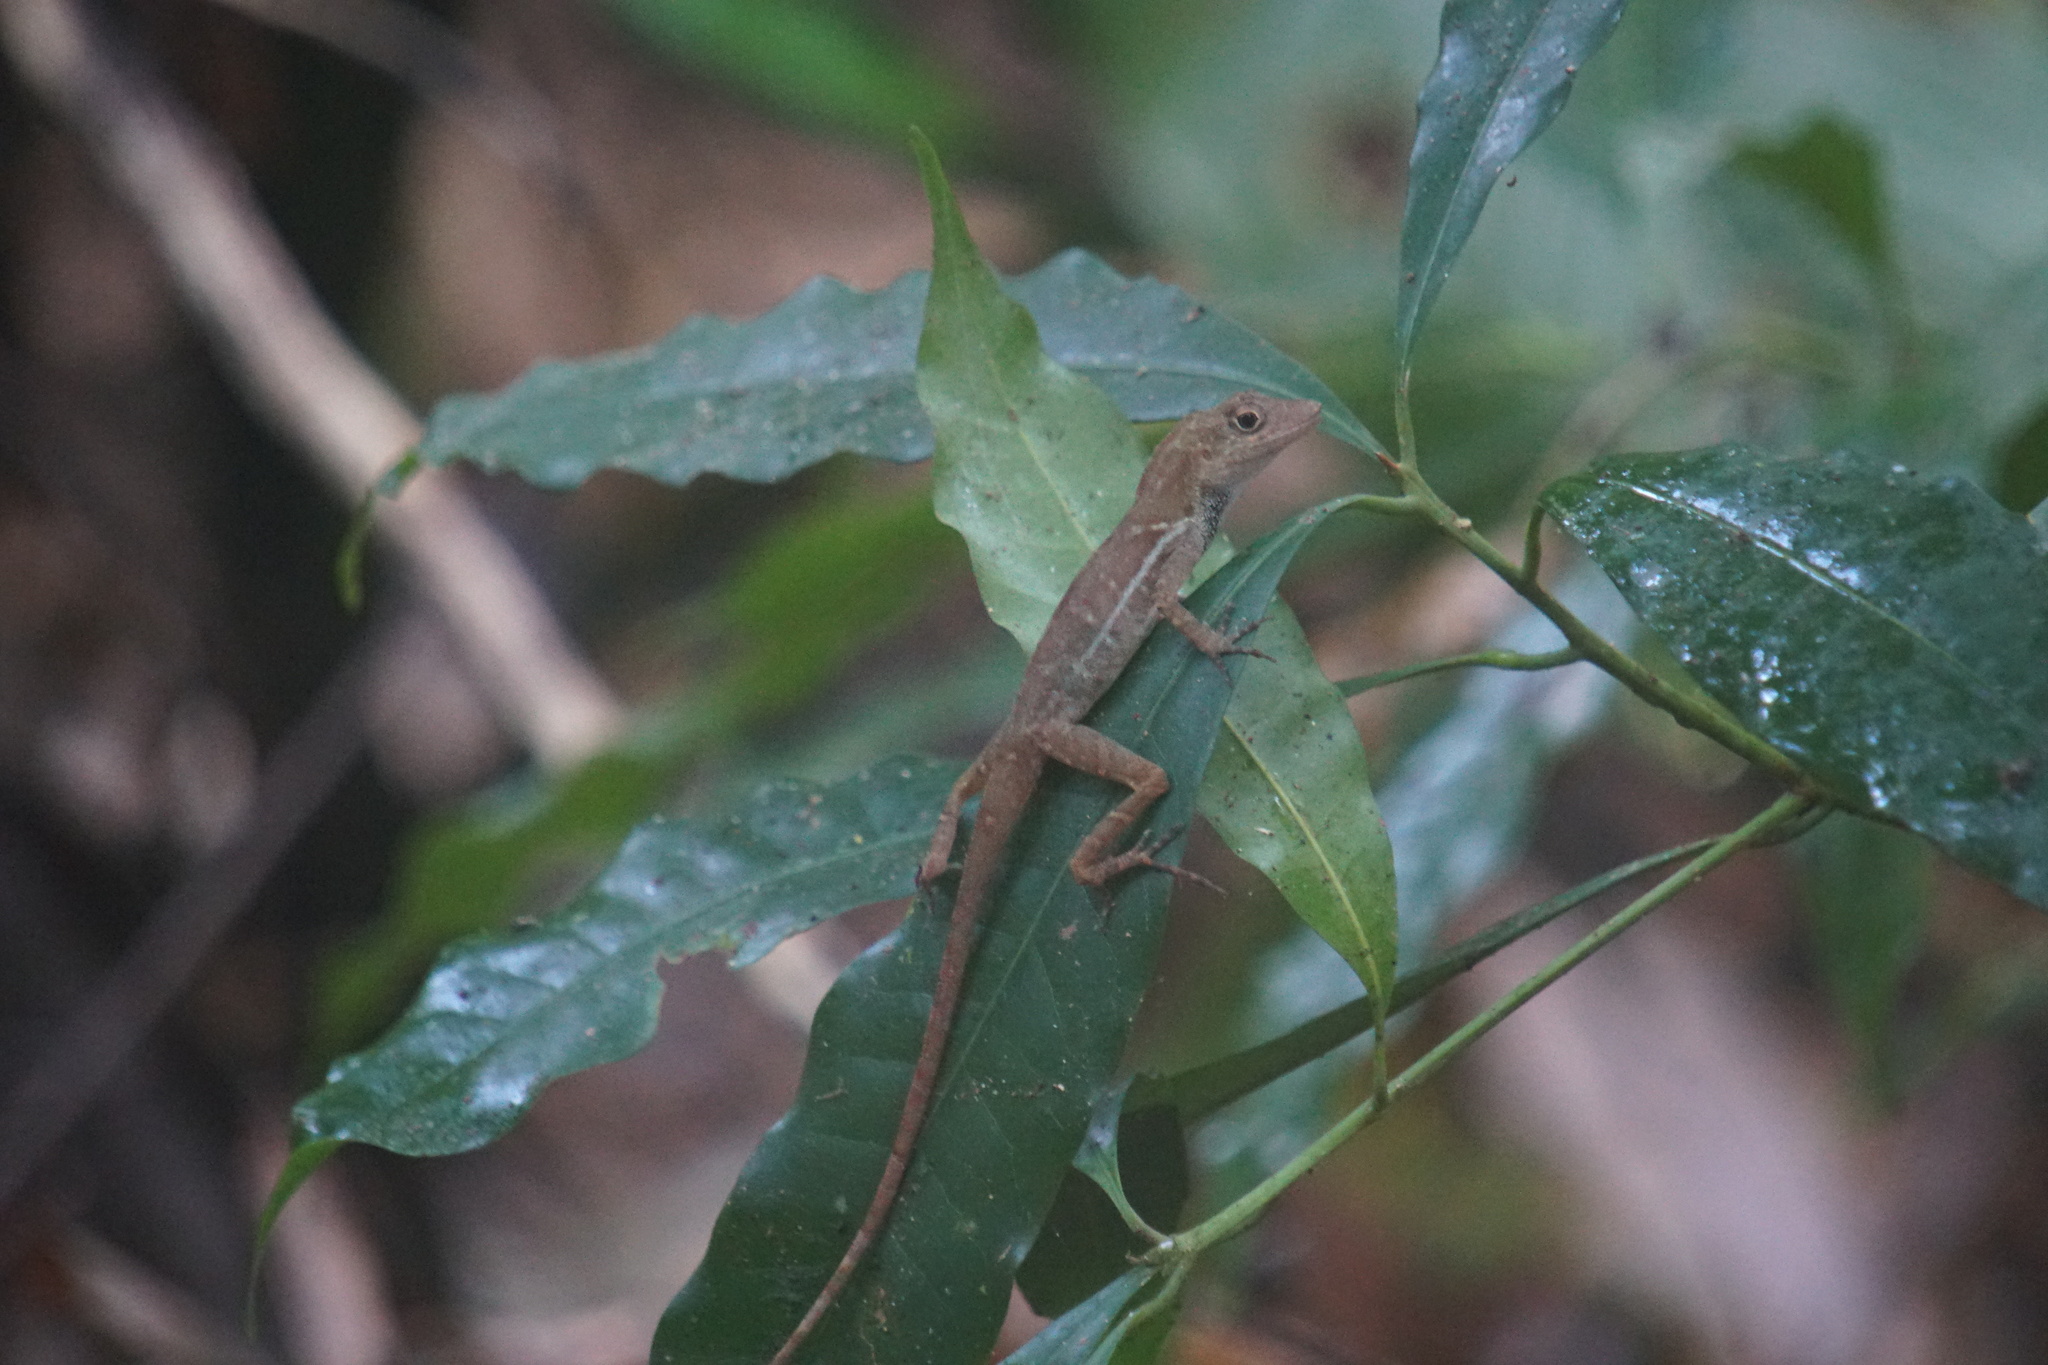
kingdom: Animalia
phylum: Chordata
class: Squamata
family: Dactyloidae
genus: Anolis
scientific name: Anolis polylepis
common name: Many-scaled anole
